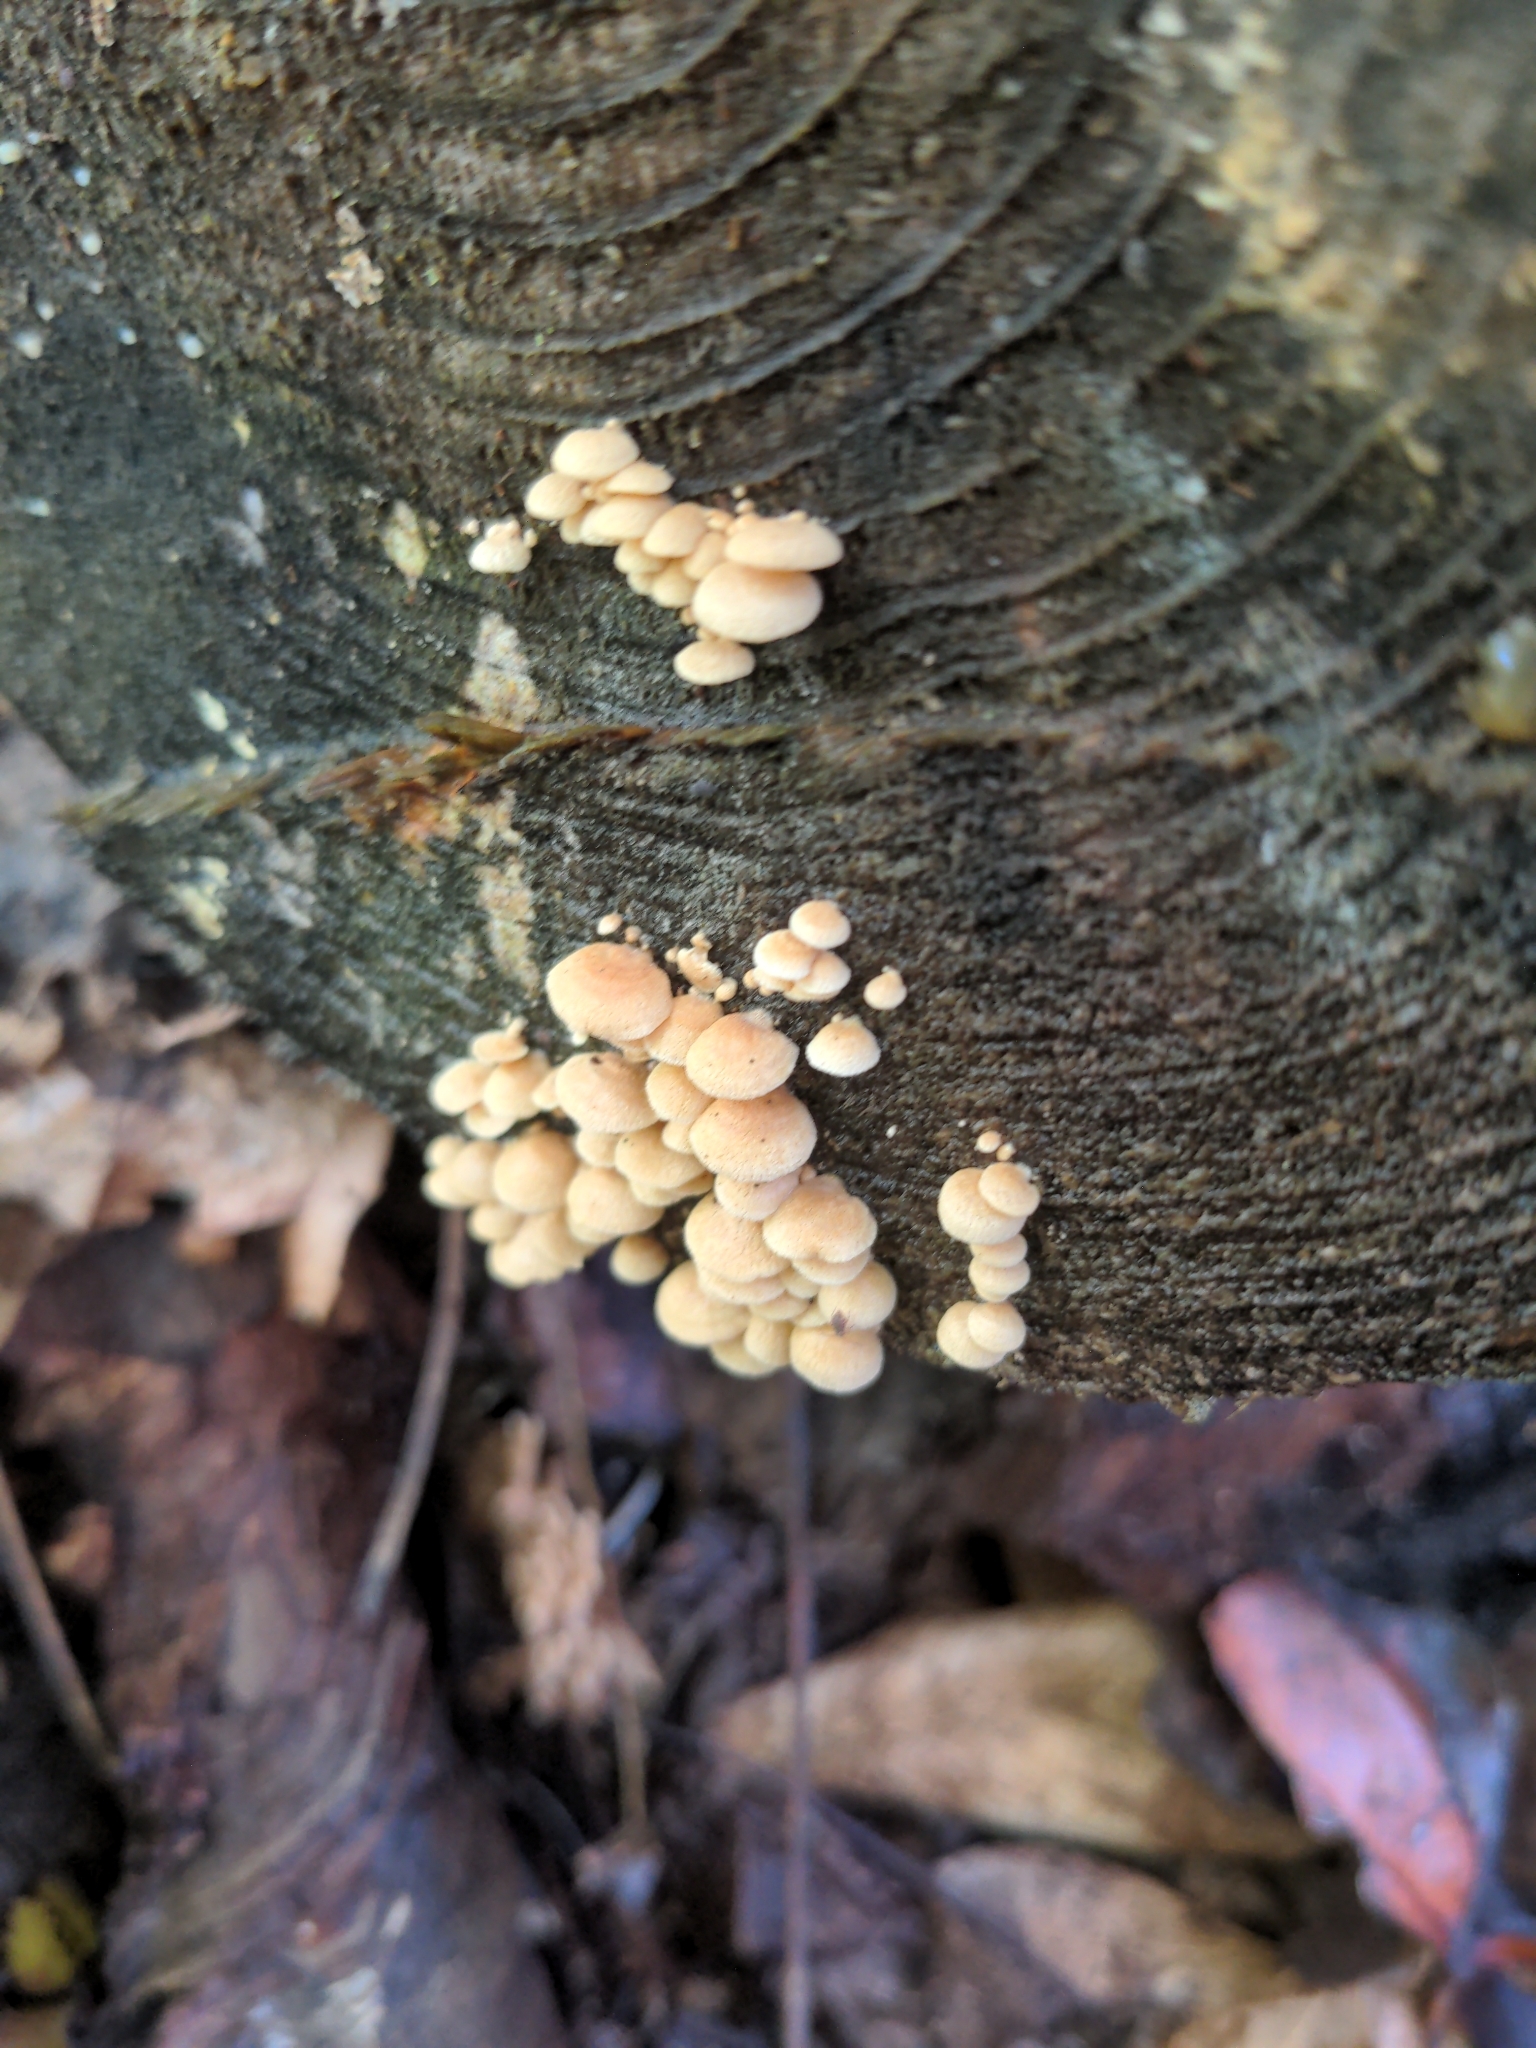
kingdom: Fungi
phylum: Basidiomycota
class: Agaricomycetes
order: Agaricales
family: Mycenaceae
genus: Panellus
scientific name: Panellus stipticus
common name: Bitter oysterling
